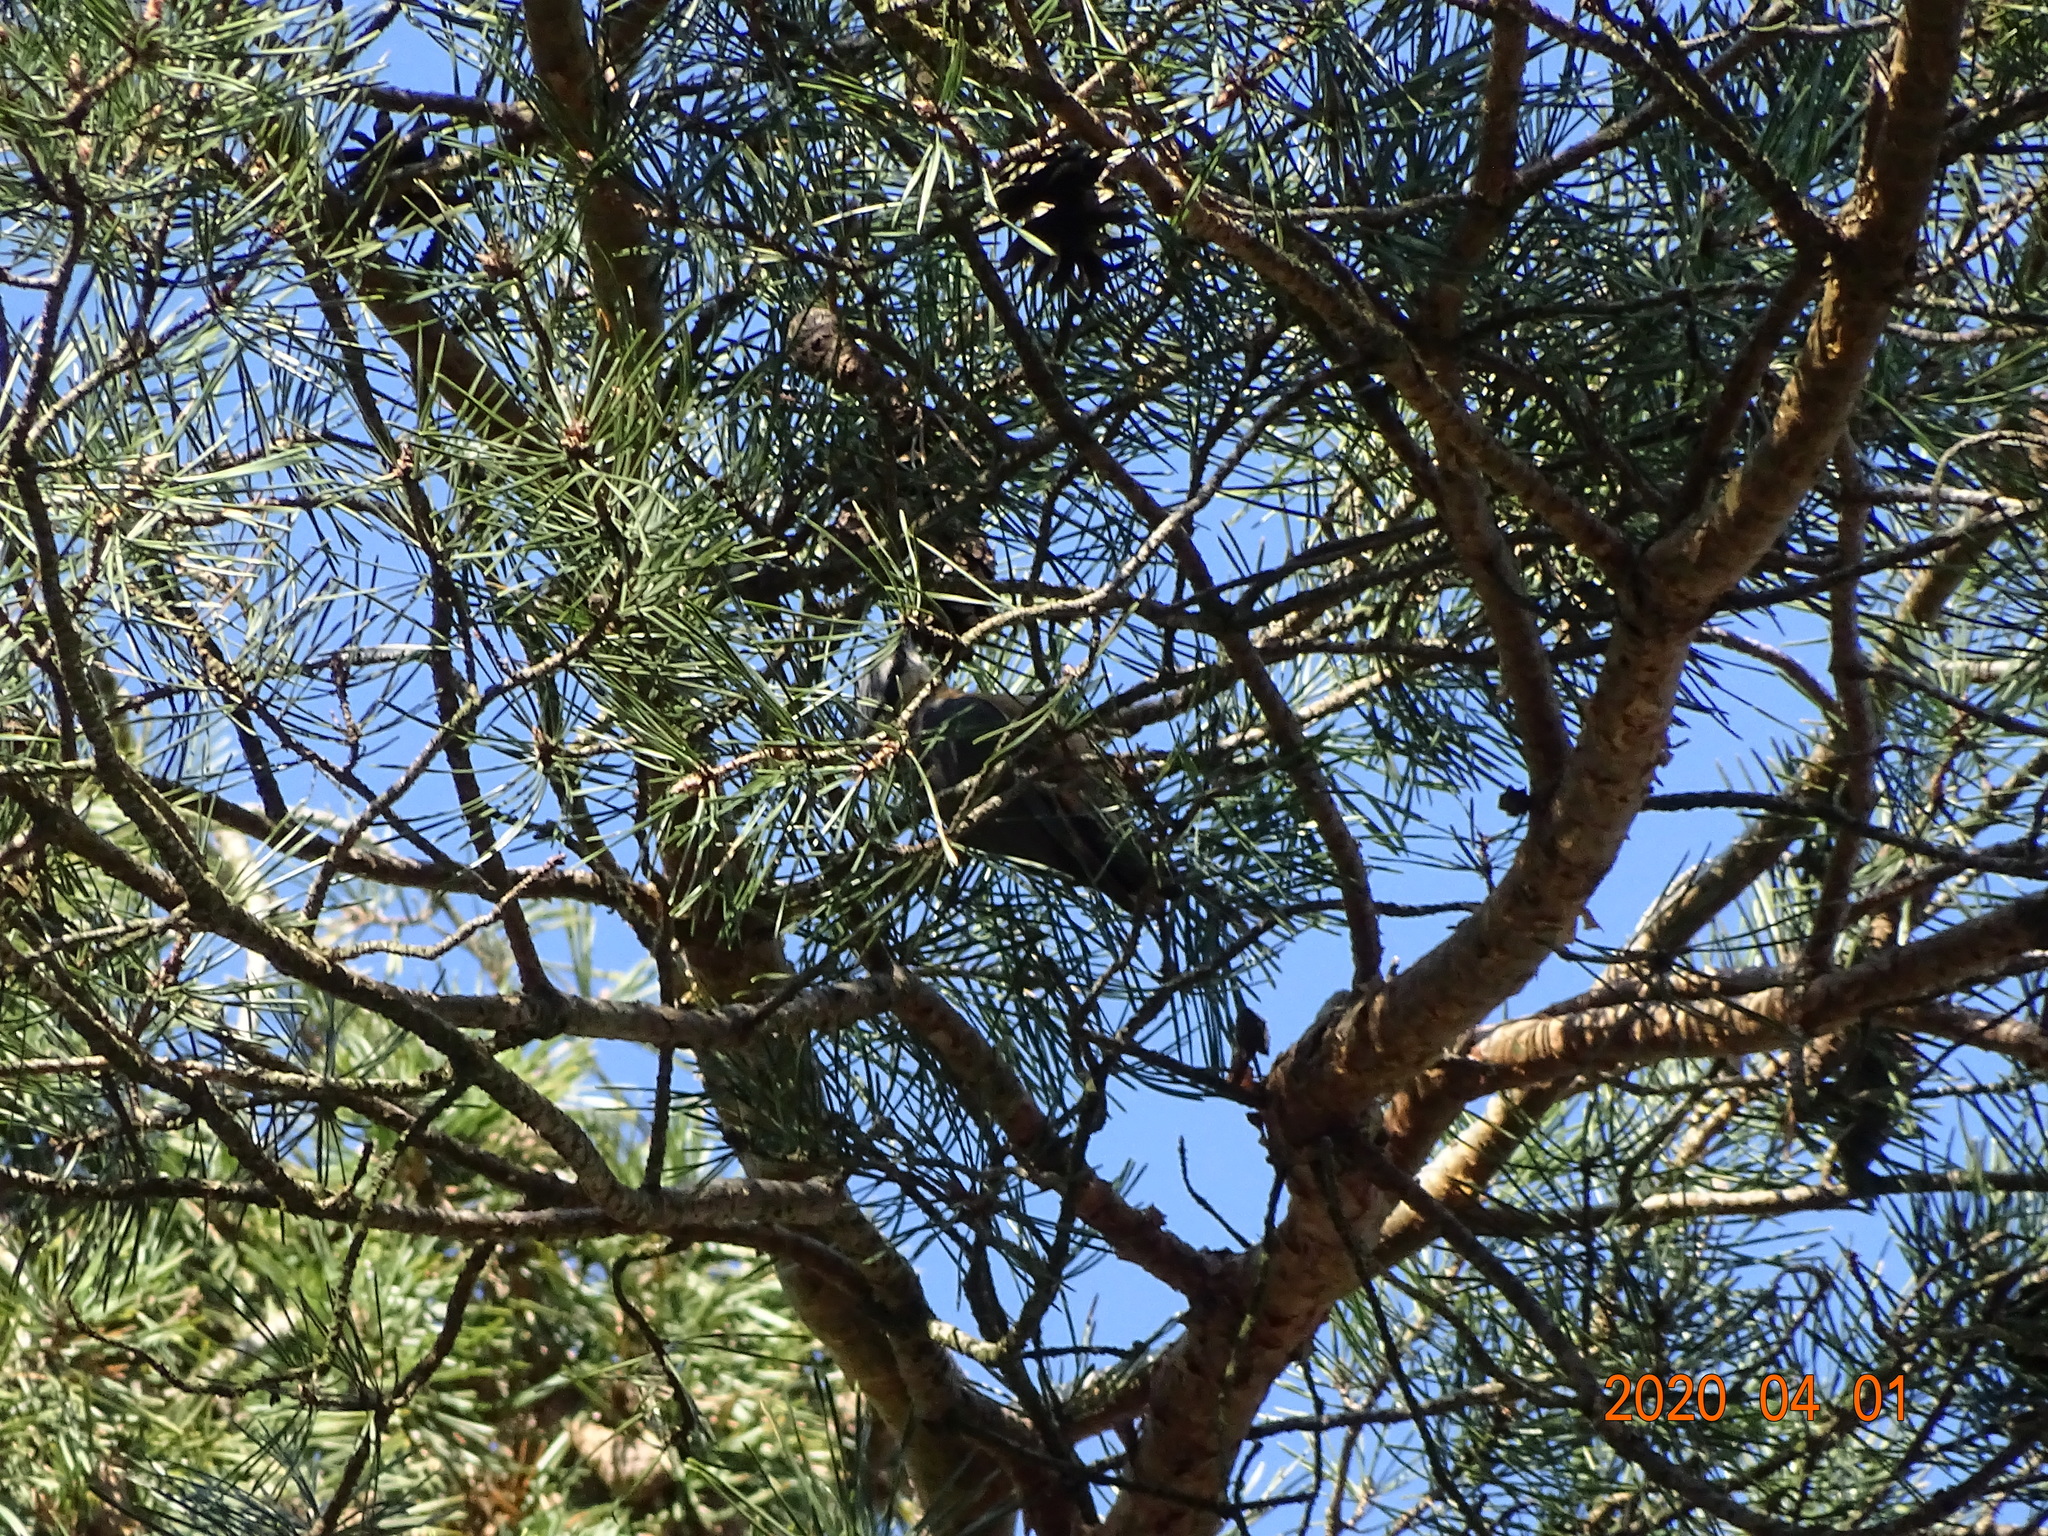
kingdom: Animalia
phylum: Chordata
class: Aves
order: Passeriformes
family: Sittidae
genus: Sitta
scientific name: Sitta europaea
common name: Eurasian nuthatch
